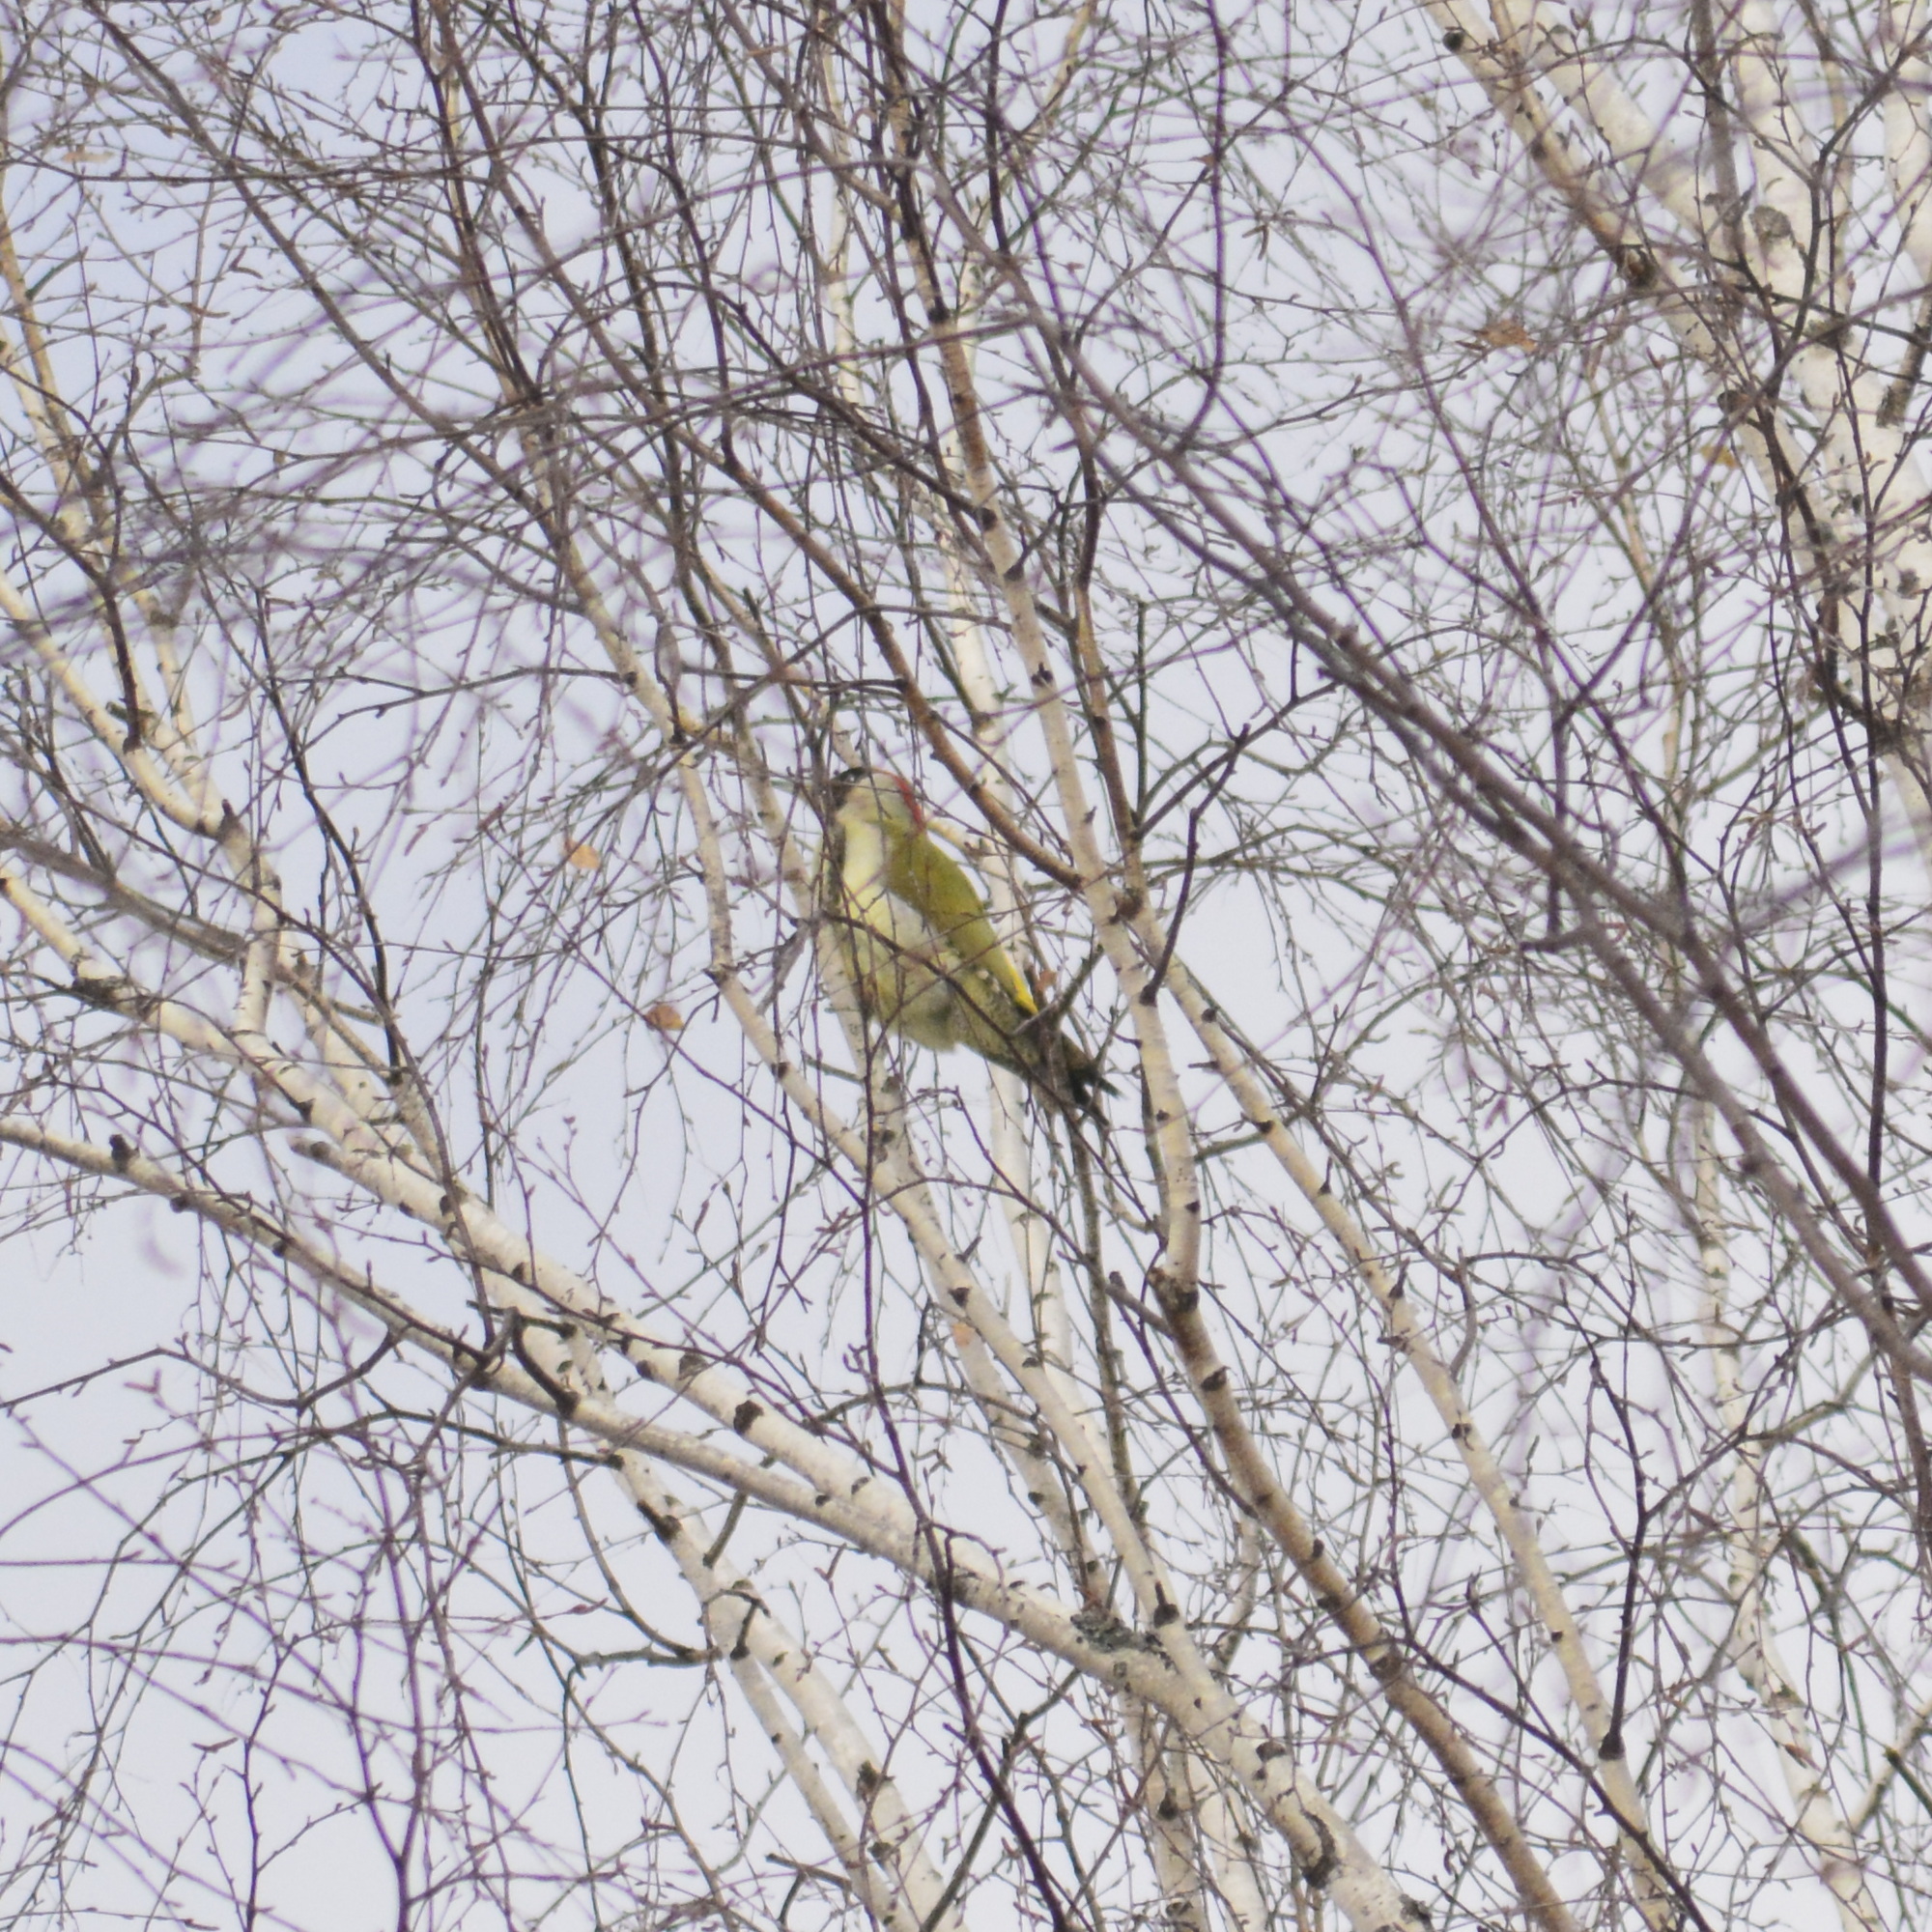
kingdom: Animalia
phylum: Chordata
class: Aves
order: Piciformes
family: Picidae
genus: Picus
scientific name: Picus viridis
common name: European green woodpecker
